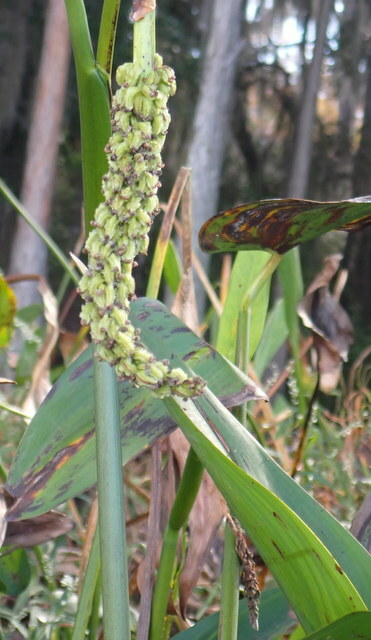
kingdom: Plantae
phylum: Tracheophyta
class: Liliopsida
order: Commelinales
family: Pontederiaceae
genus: Pontederia
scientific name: Pontederia cordata
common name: Pickerelweed
